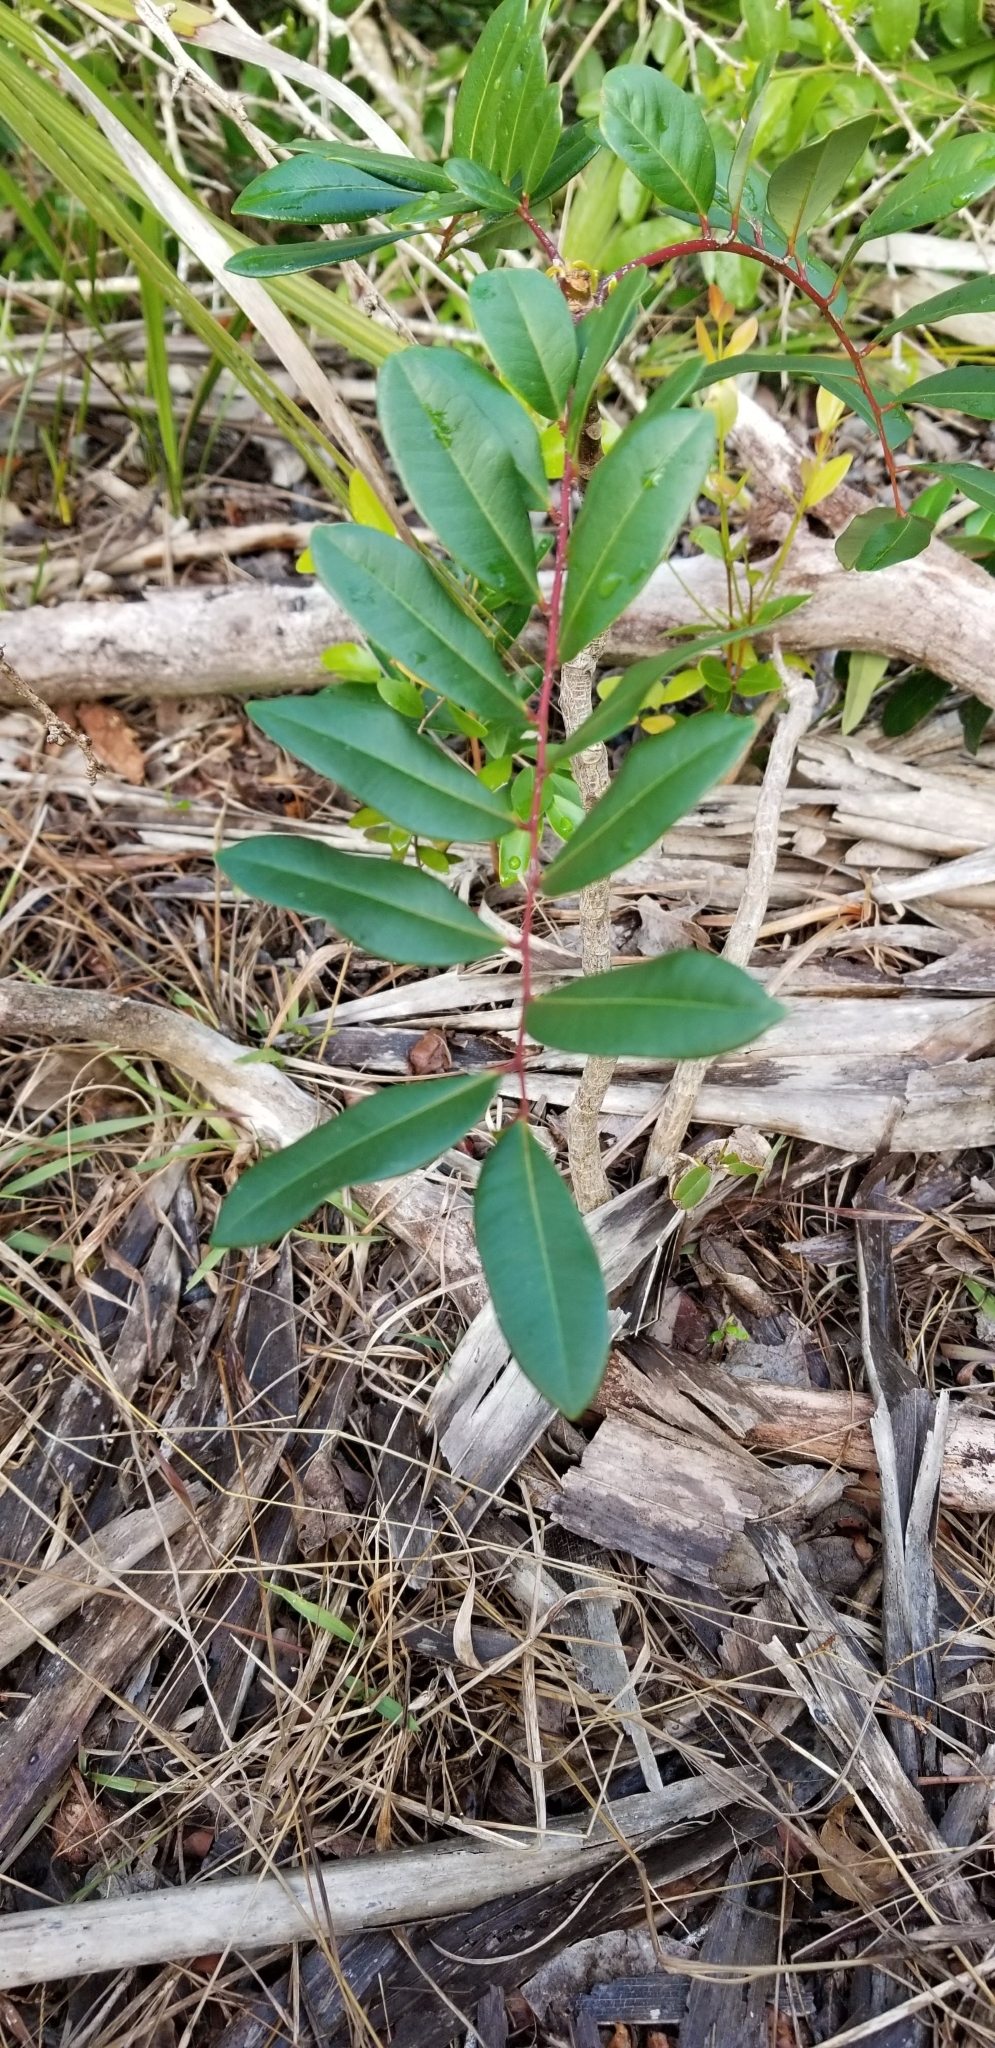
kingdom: Plantae
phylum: Tracheophyta
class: Magnoliopsida
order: Sapindales
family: Simaroubaceae
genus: Simarouba
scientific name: Simarouba glauca
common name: Dysentery-bark
